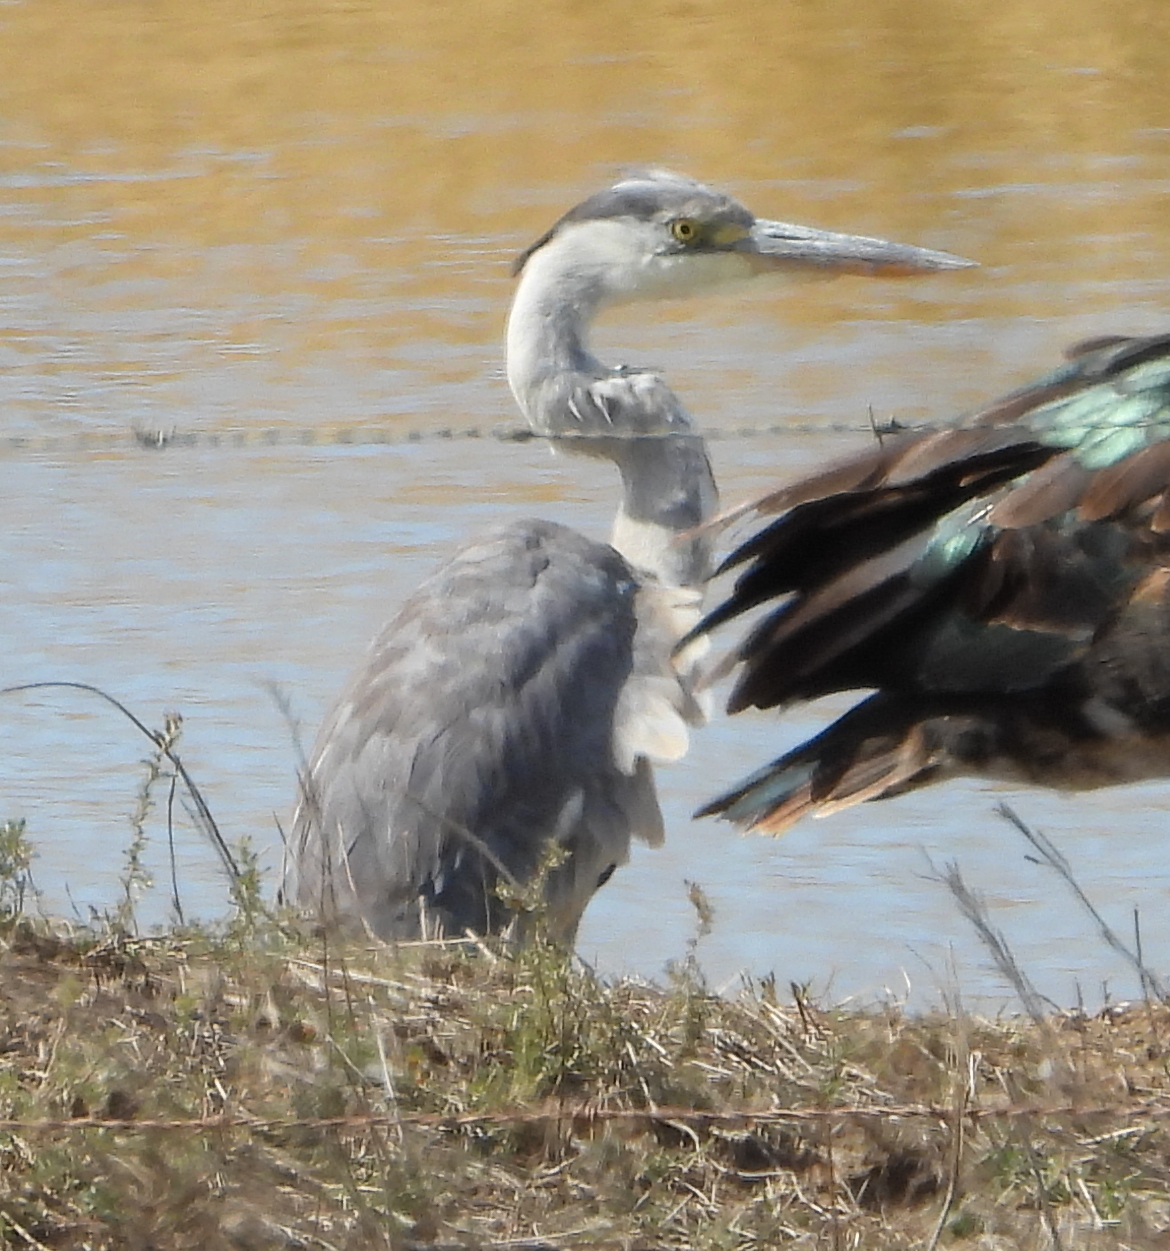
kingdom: Animalia
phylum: Chordata
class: Aves
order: Pelecaniformes
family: Ardeidae
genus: Ardea
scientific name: Ardea cinerea
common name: Grey heron
